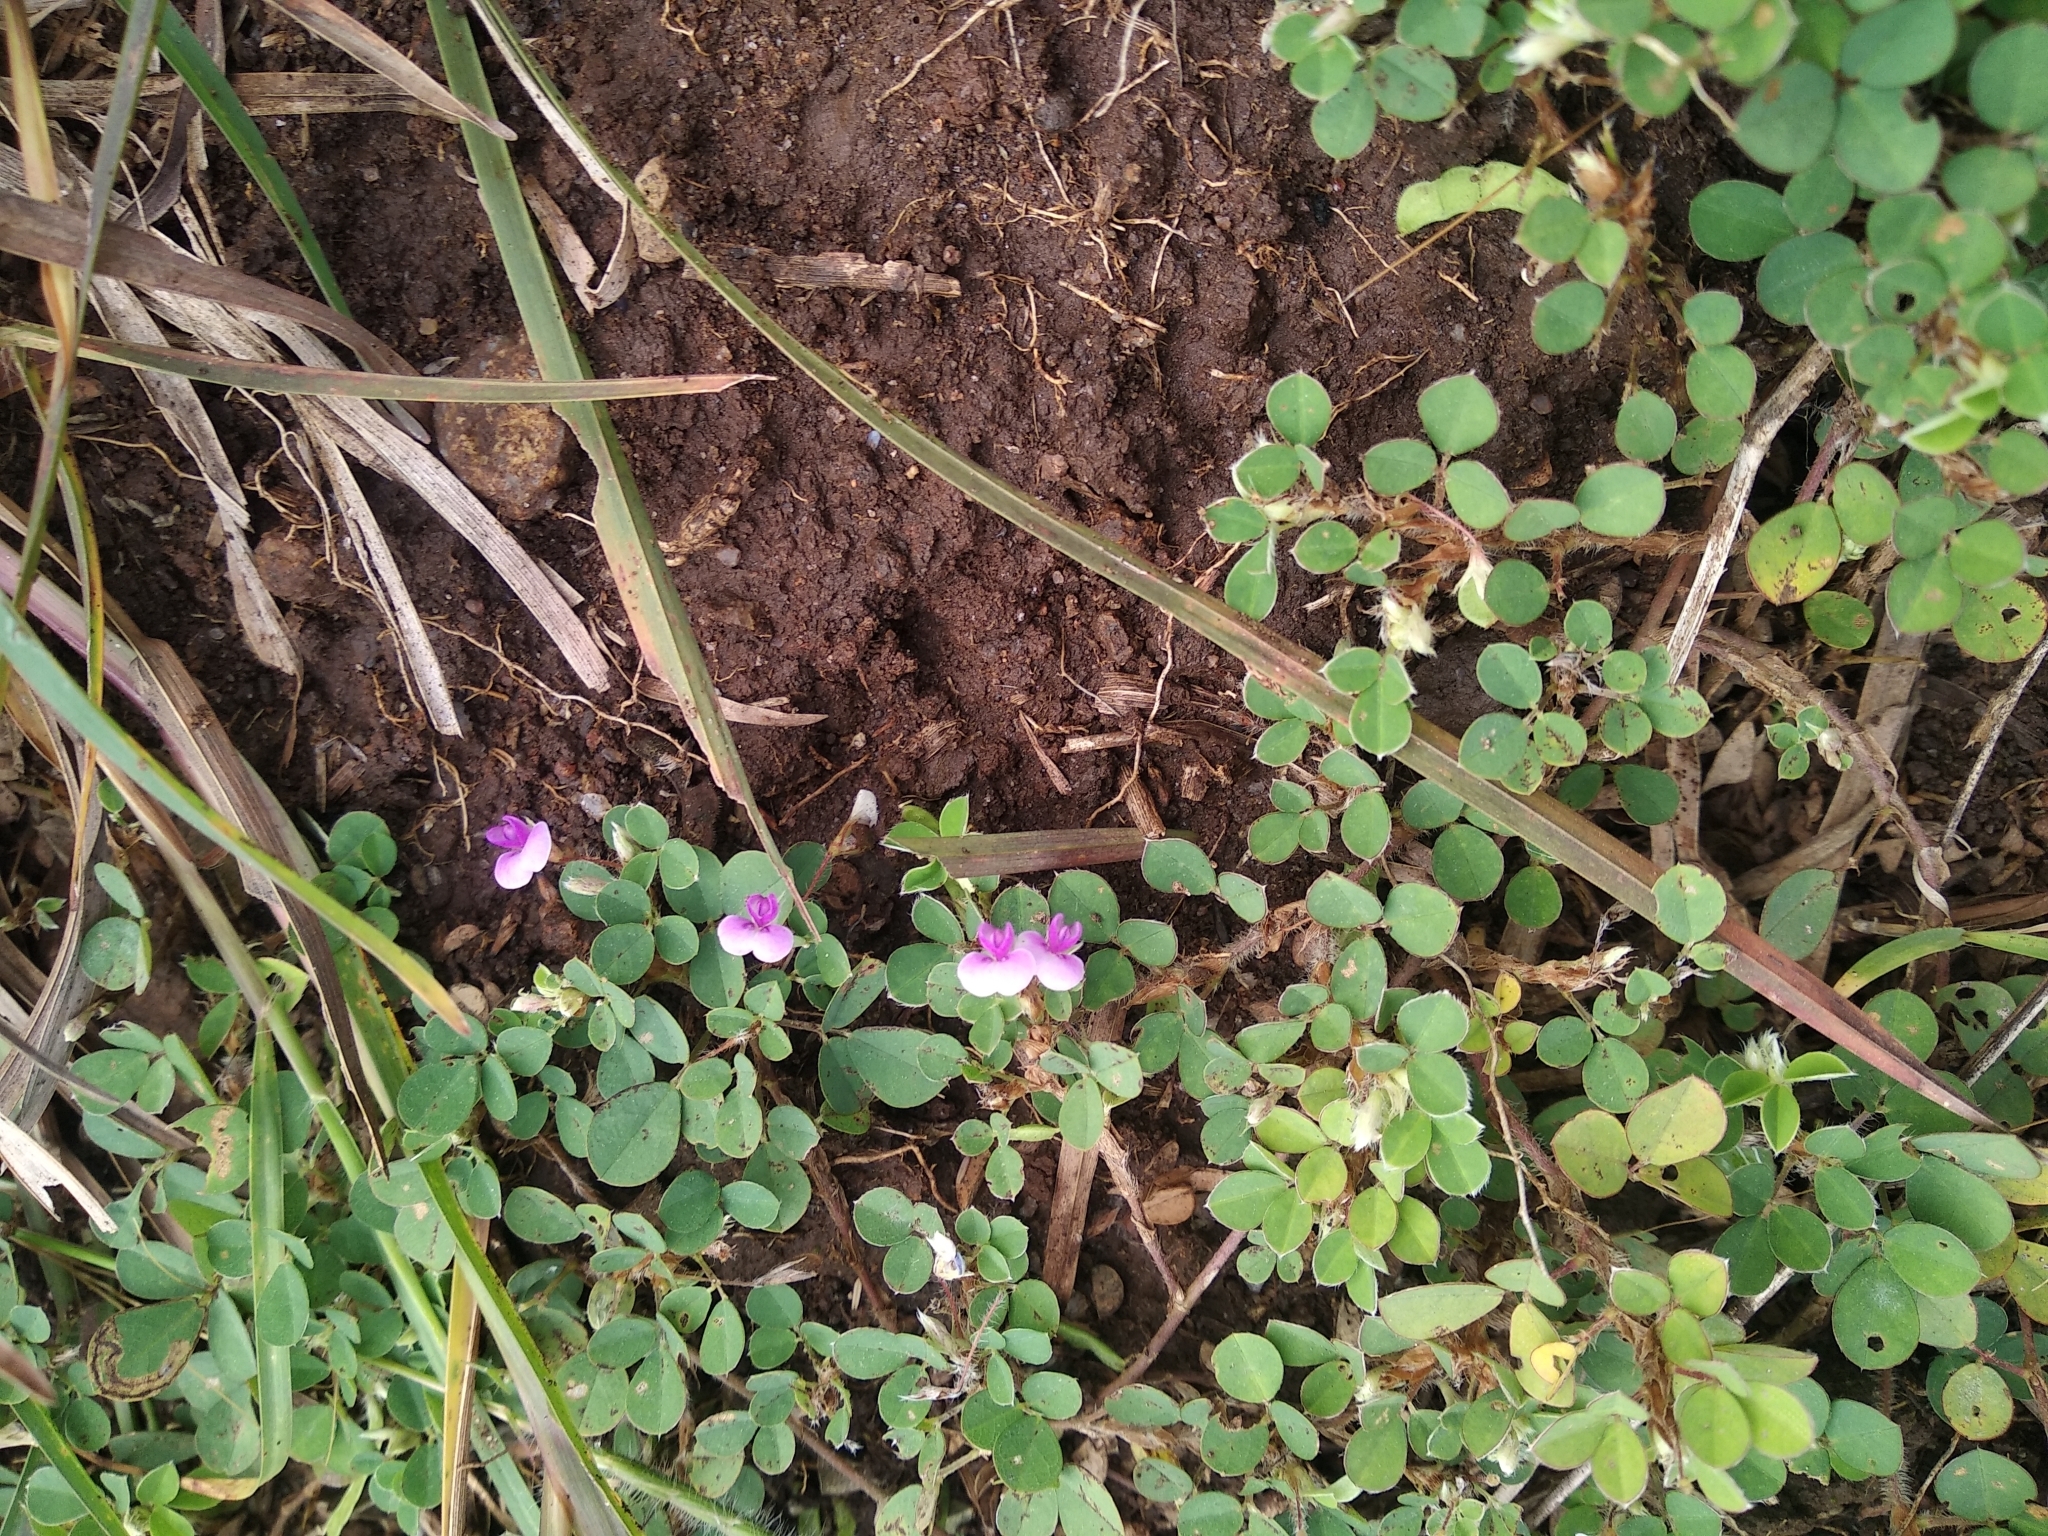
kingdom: Plantae
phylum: Tracheophyta
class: Magnoliopsida
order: Fabales
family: Fabaceae
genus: Grona
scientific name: Grona triflora
